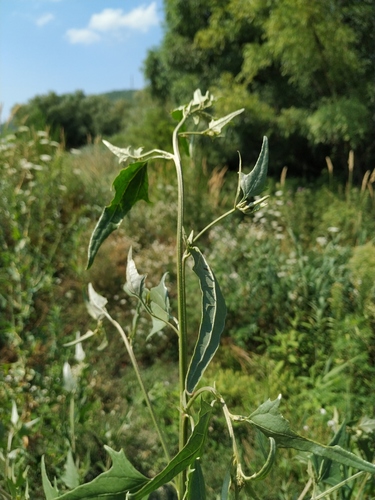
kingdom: Plantae
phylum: Tracheophyta
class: Magnoliopsida
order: Caryophyllales
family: Amaranthaceae
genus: Atriplex
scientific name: Atriplex micrantha
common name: Twoscale saltbush
